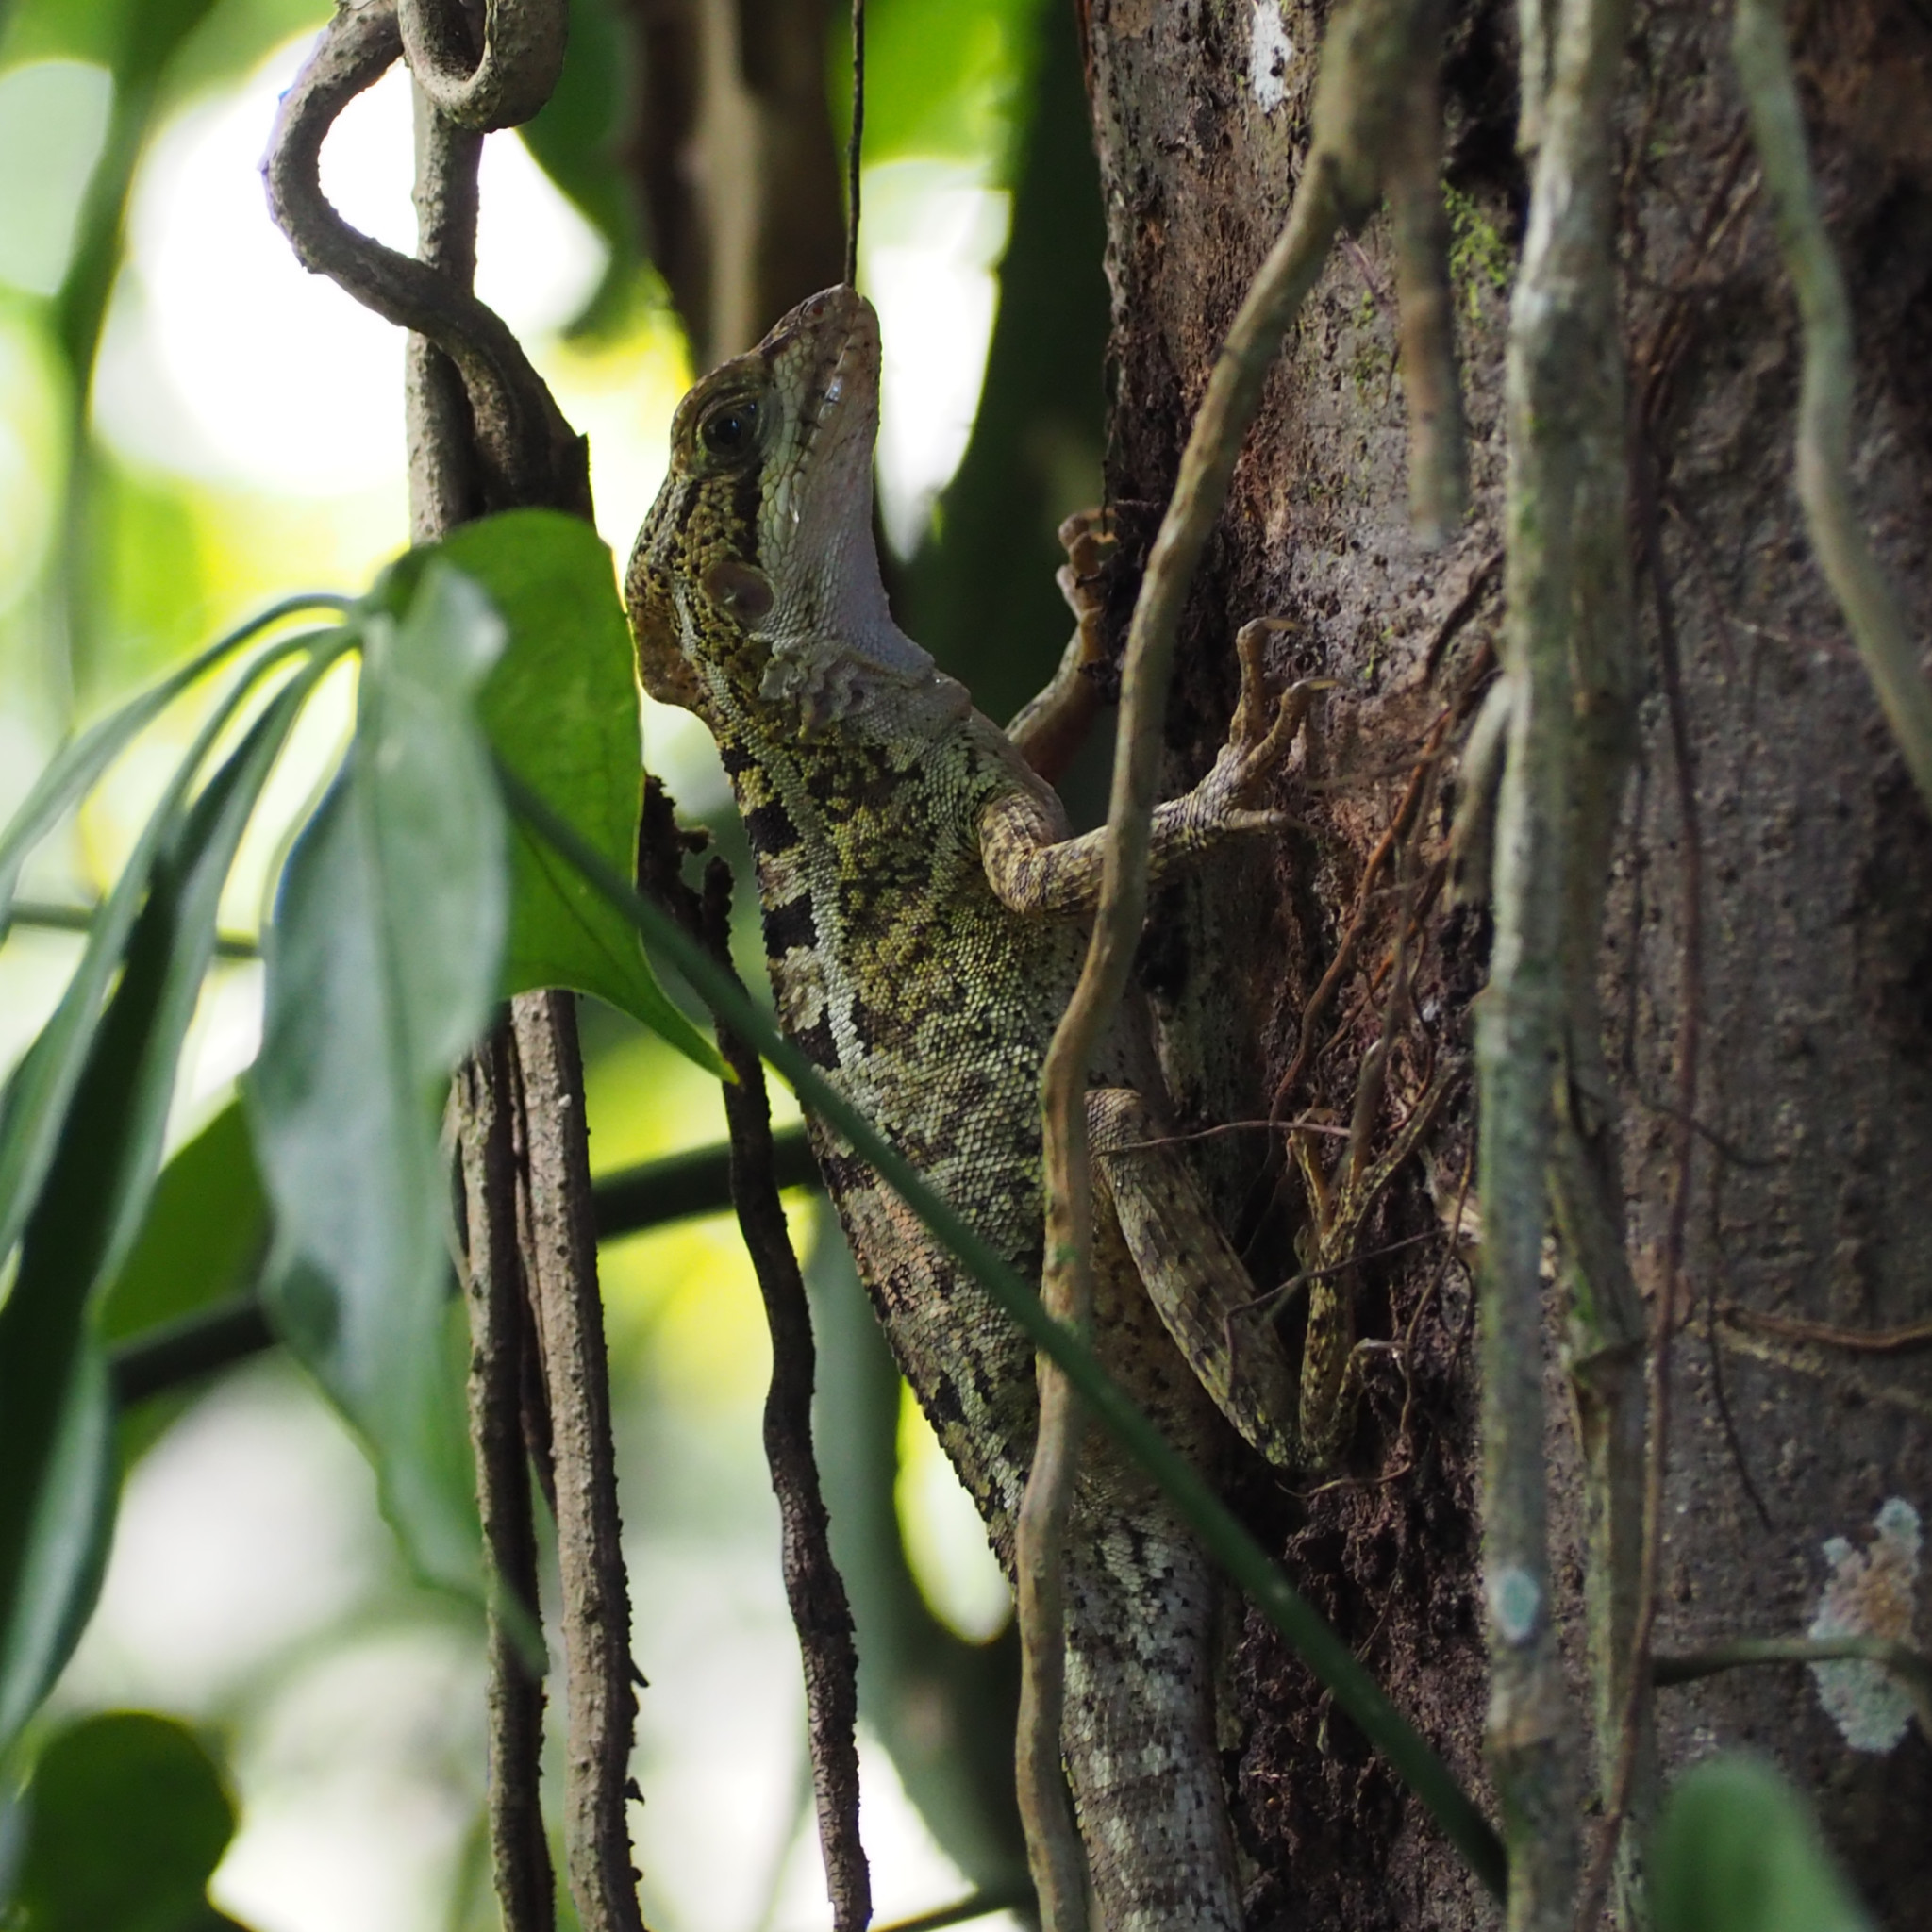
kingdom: Animalia
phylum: Chordata
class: Squamata
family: Corytophanidae
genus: Basiliscus
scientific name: Basiliscus vittatus
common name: Brown basilisk
